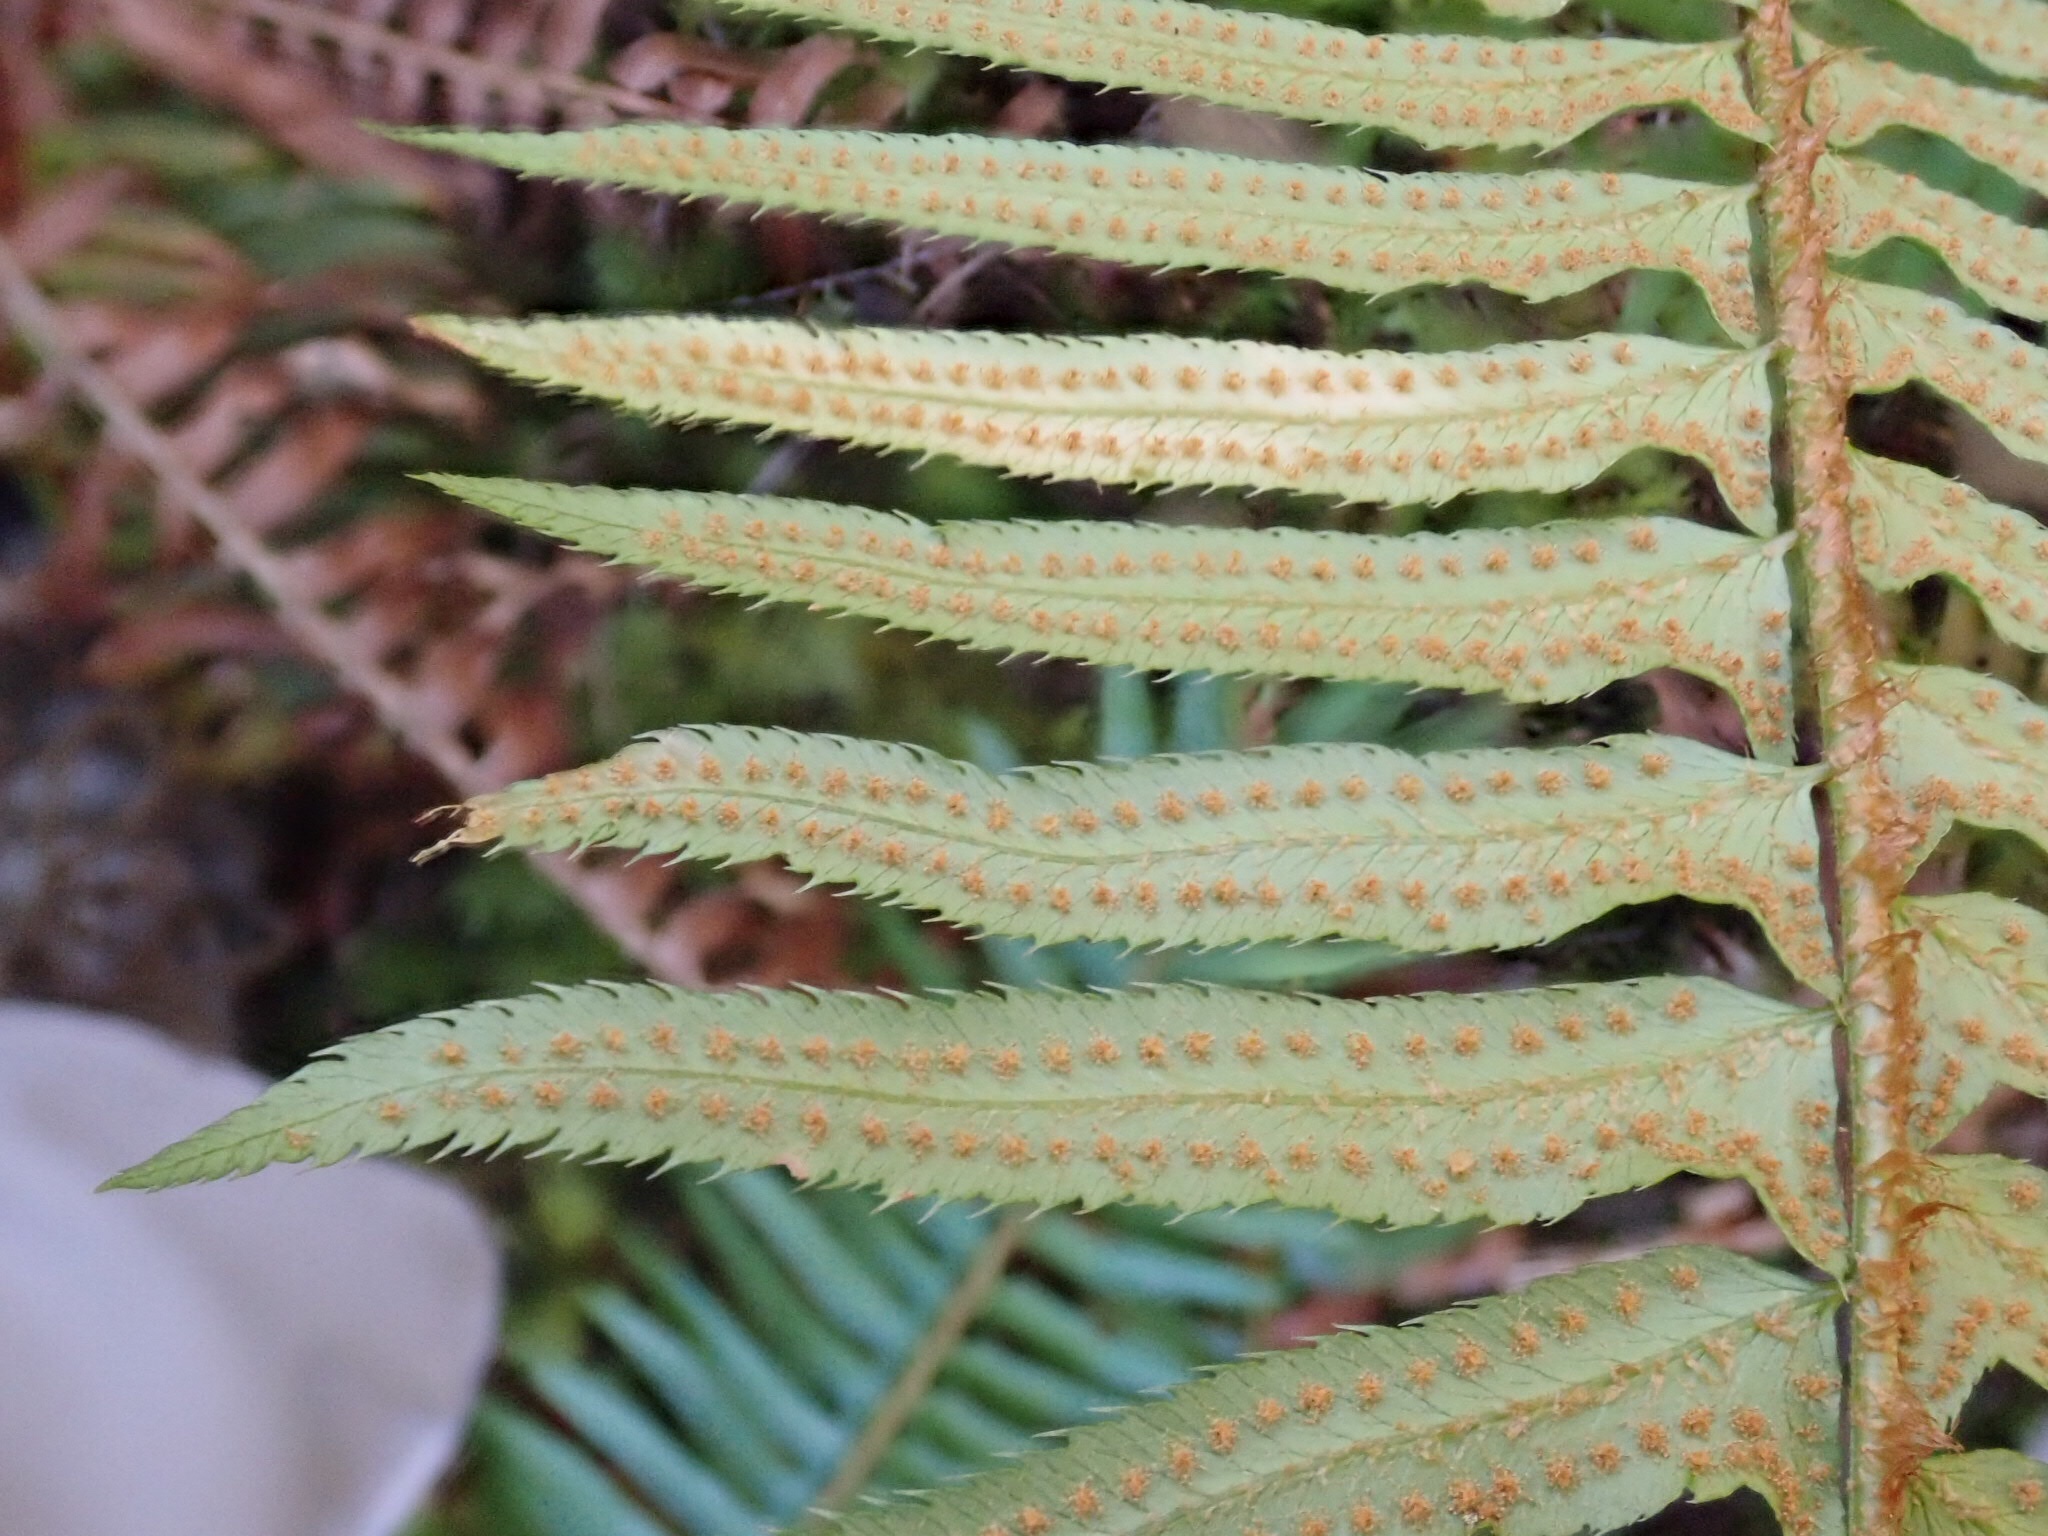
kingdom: Plantae
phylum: Tracheophyta
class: Polypodiopsida
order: Polypodiales
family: Dryopteridaceae
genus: Polystichum
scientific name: Polystichum munitum
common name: Western sword-fern
